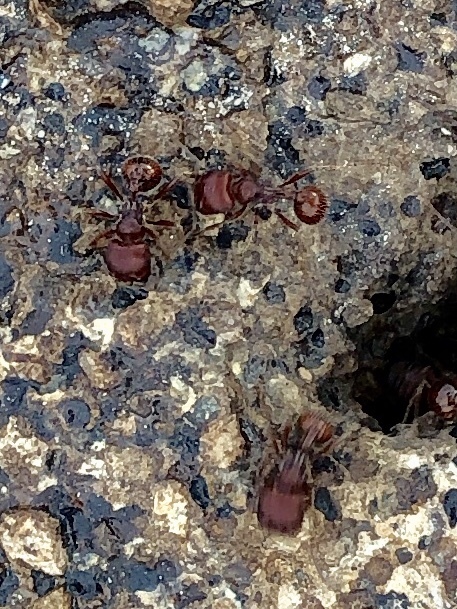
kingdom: Animalia
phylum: Arthropoda
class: Insecta
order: Hymenoptera
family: Formicidae
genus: Pogonomyrmex
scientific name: Pogonomyrmex barbatus
